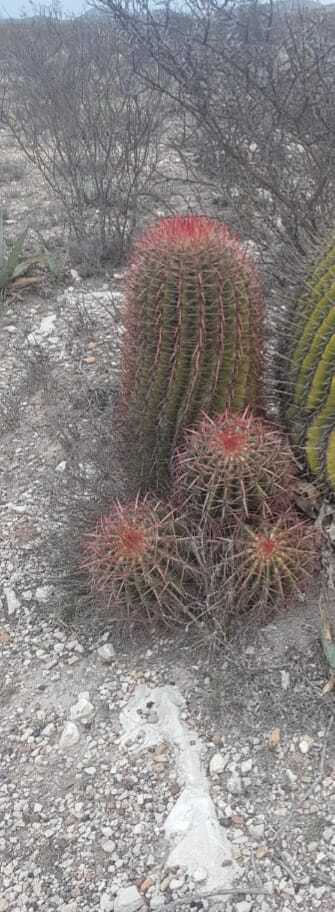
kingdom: Plantae
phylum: Tracheophyta
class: Magnoliopsida
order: Caryophyllales
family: Cactaceae
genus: Ferocactus
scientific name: Ferocactus pilosus
